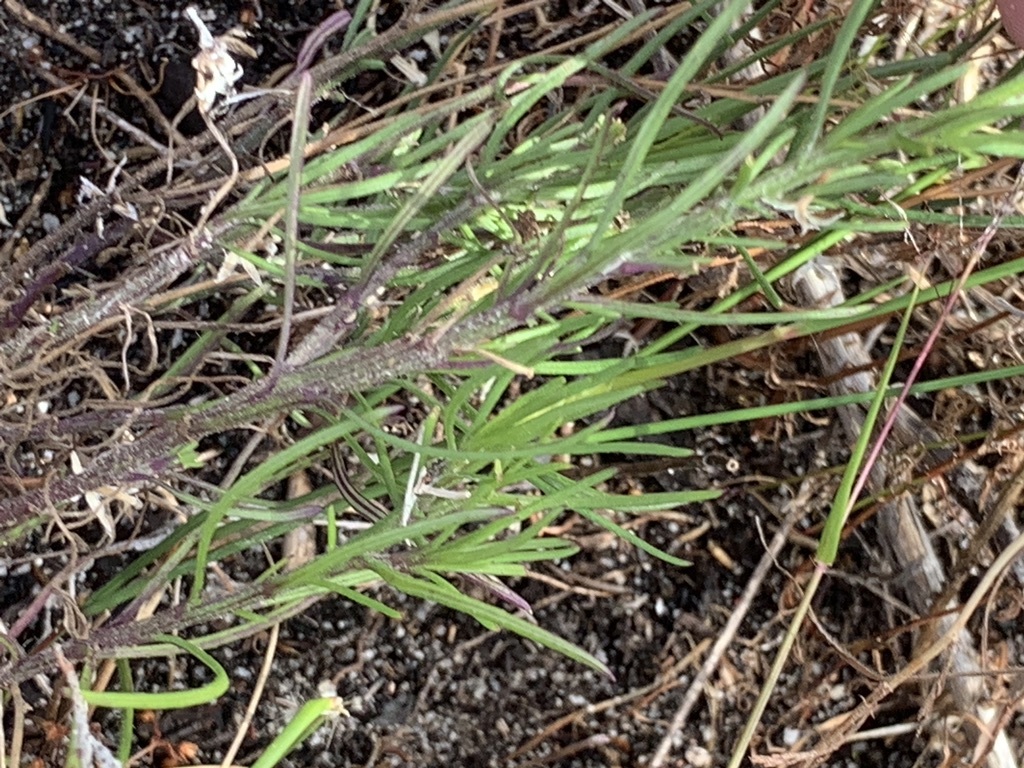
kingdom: Plantae
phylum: Tracheophyta
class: Magnoliopsida
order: Asterales
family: Asteraceae
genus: Senecio
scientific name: Senecio burchellii
